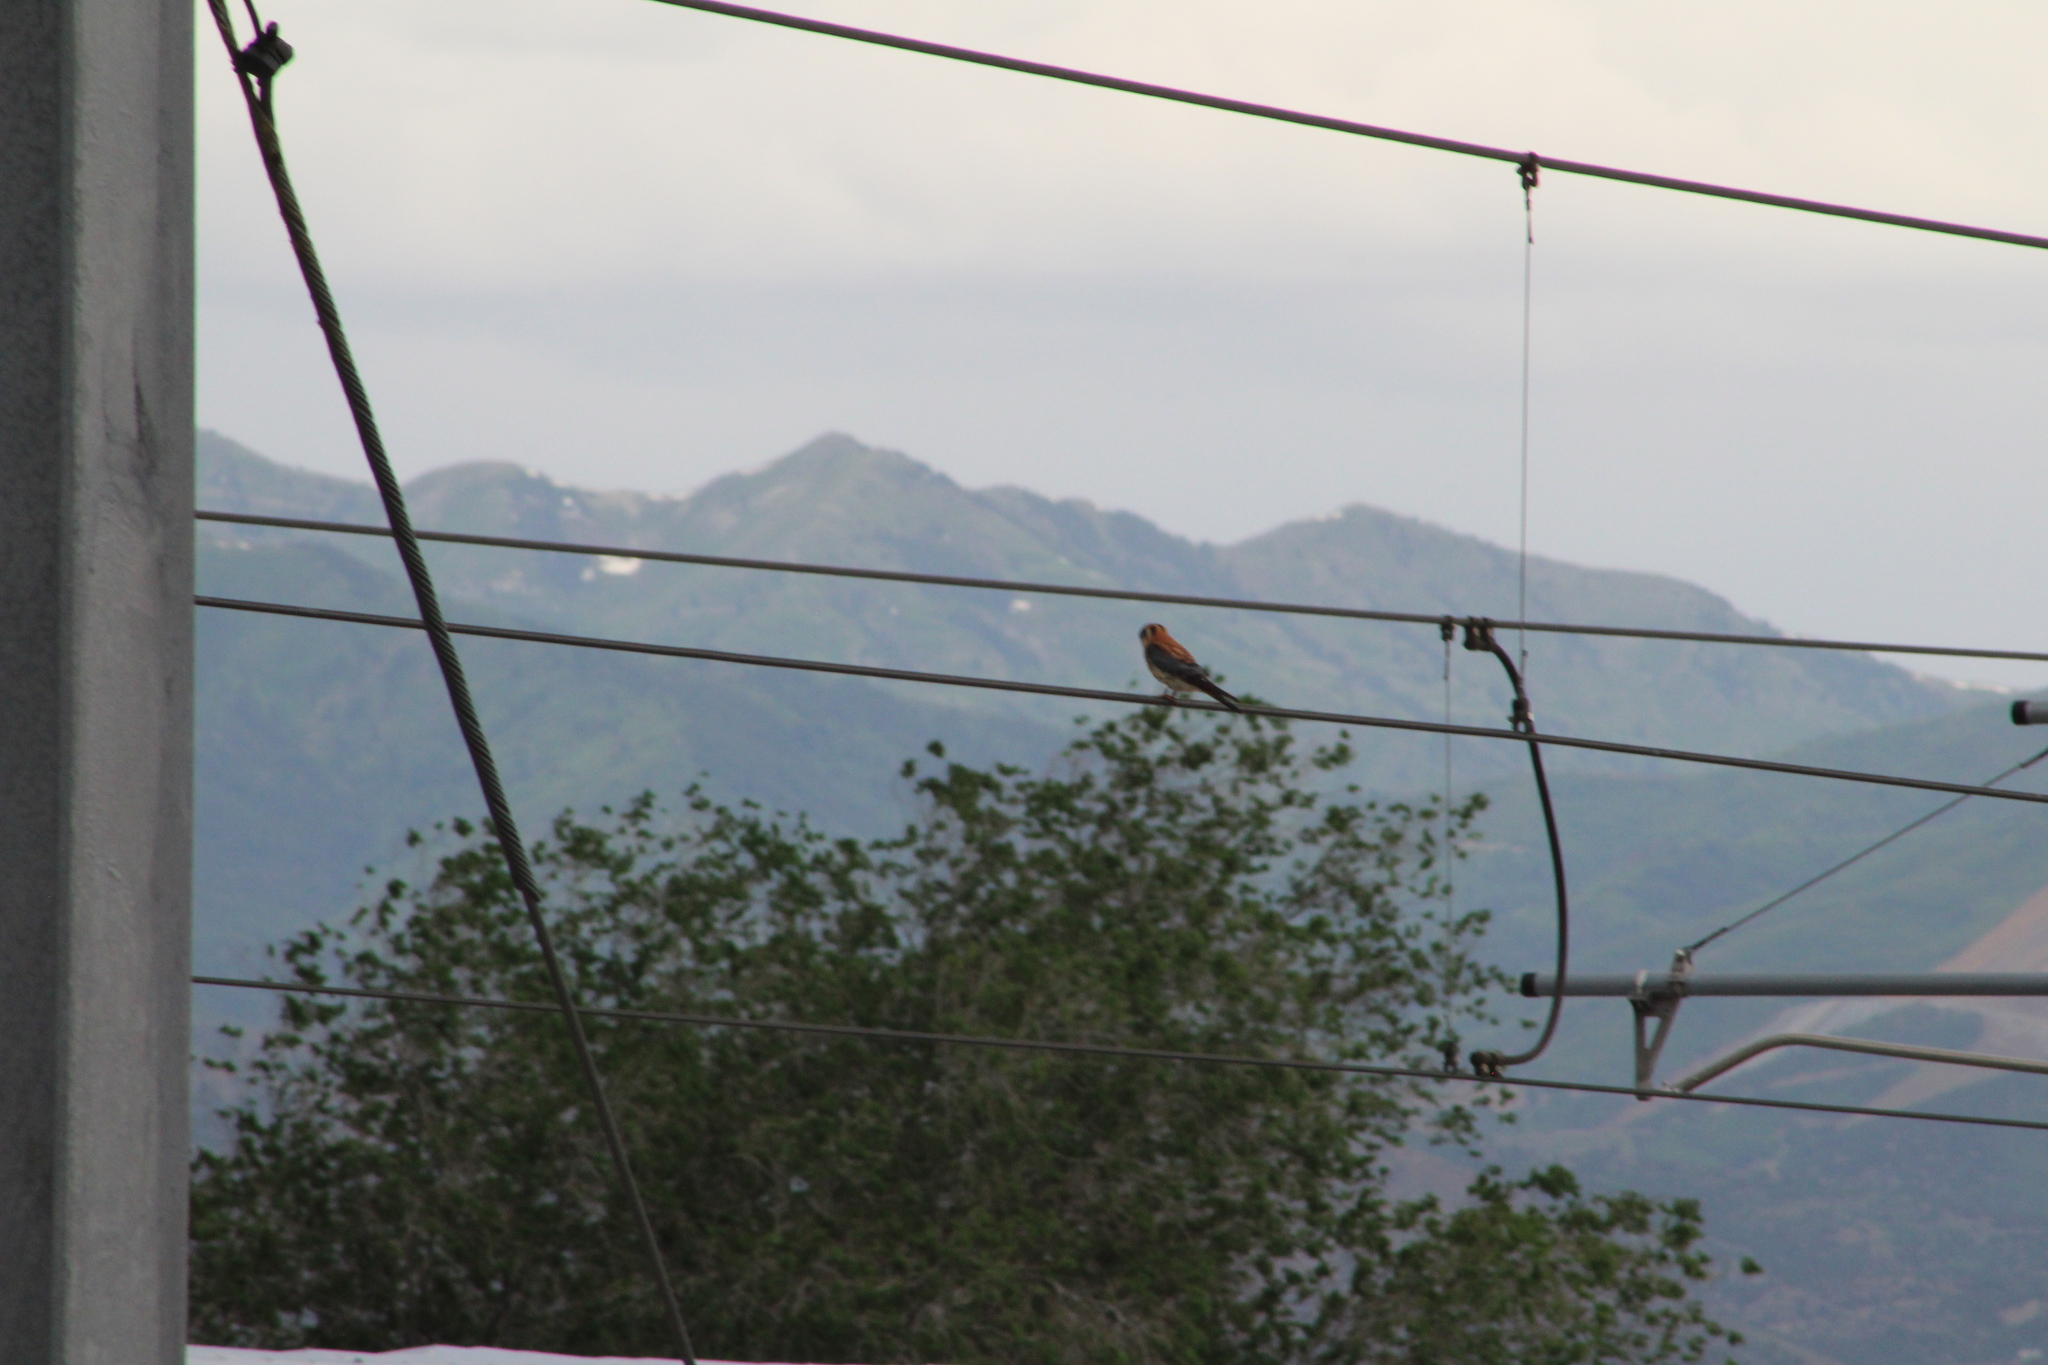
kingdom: Animalia
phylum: Chordata
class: Aves
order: Falconiformes
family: Falconidae
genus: Falco
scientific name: Falco sparverius
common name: American kestrel
